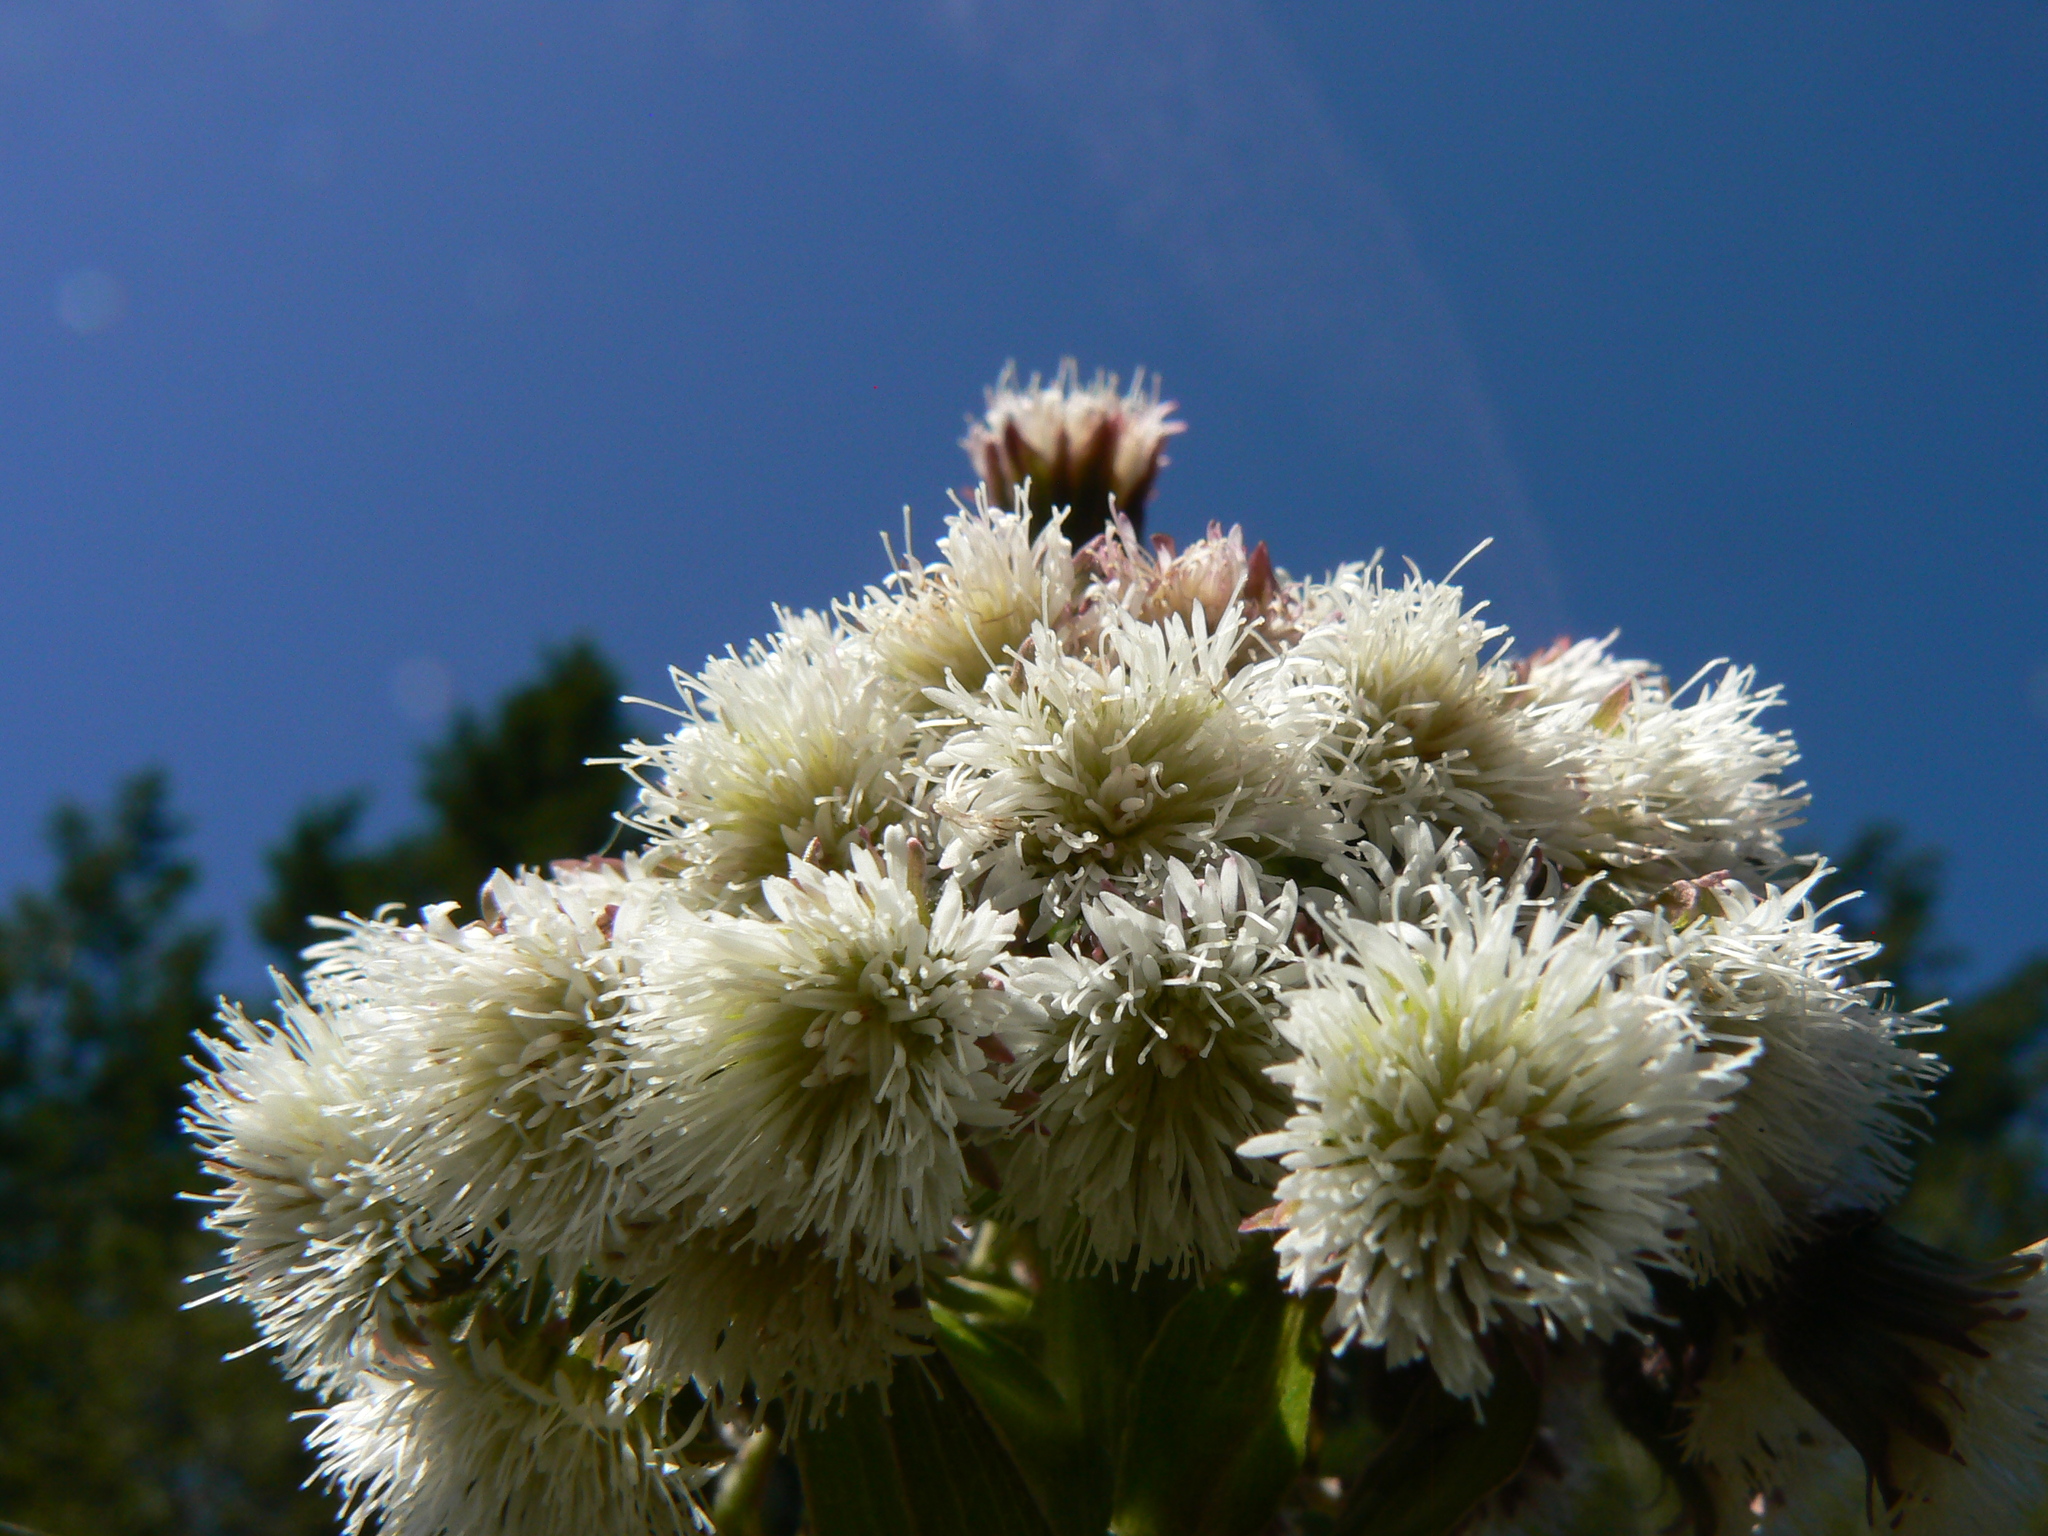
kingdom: Plantae
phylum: Tracheophyta
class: Magnoliopsida
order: Asterales
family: Asteraceae
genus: Petasites
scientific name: Petasites frigidus
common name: Arctic butterbur
